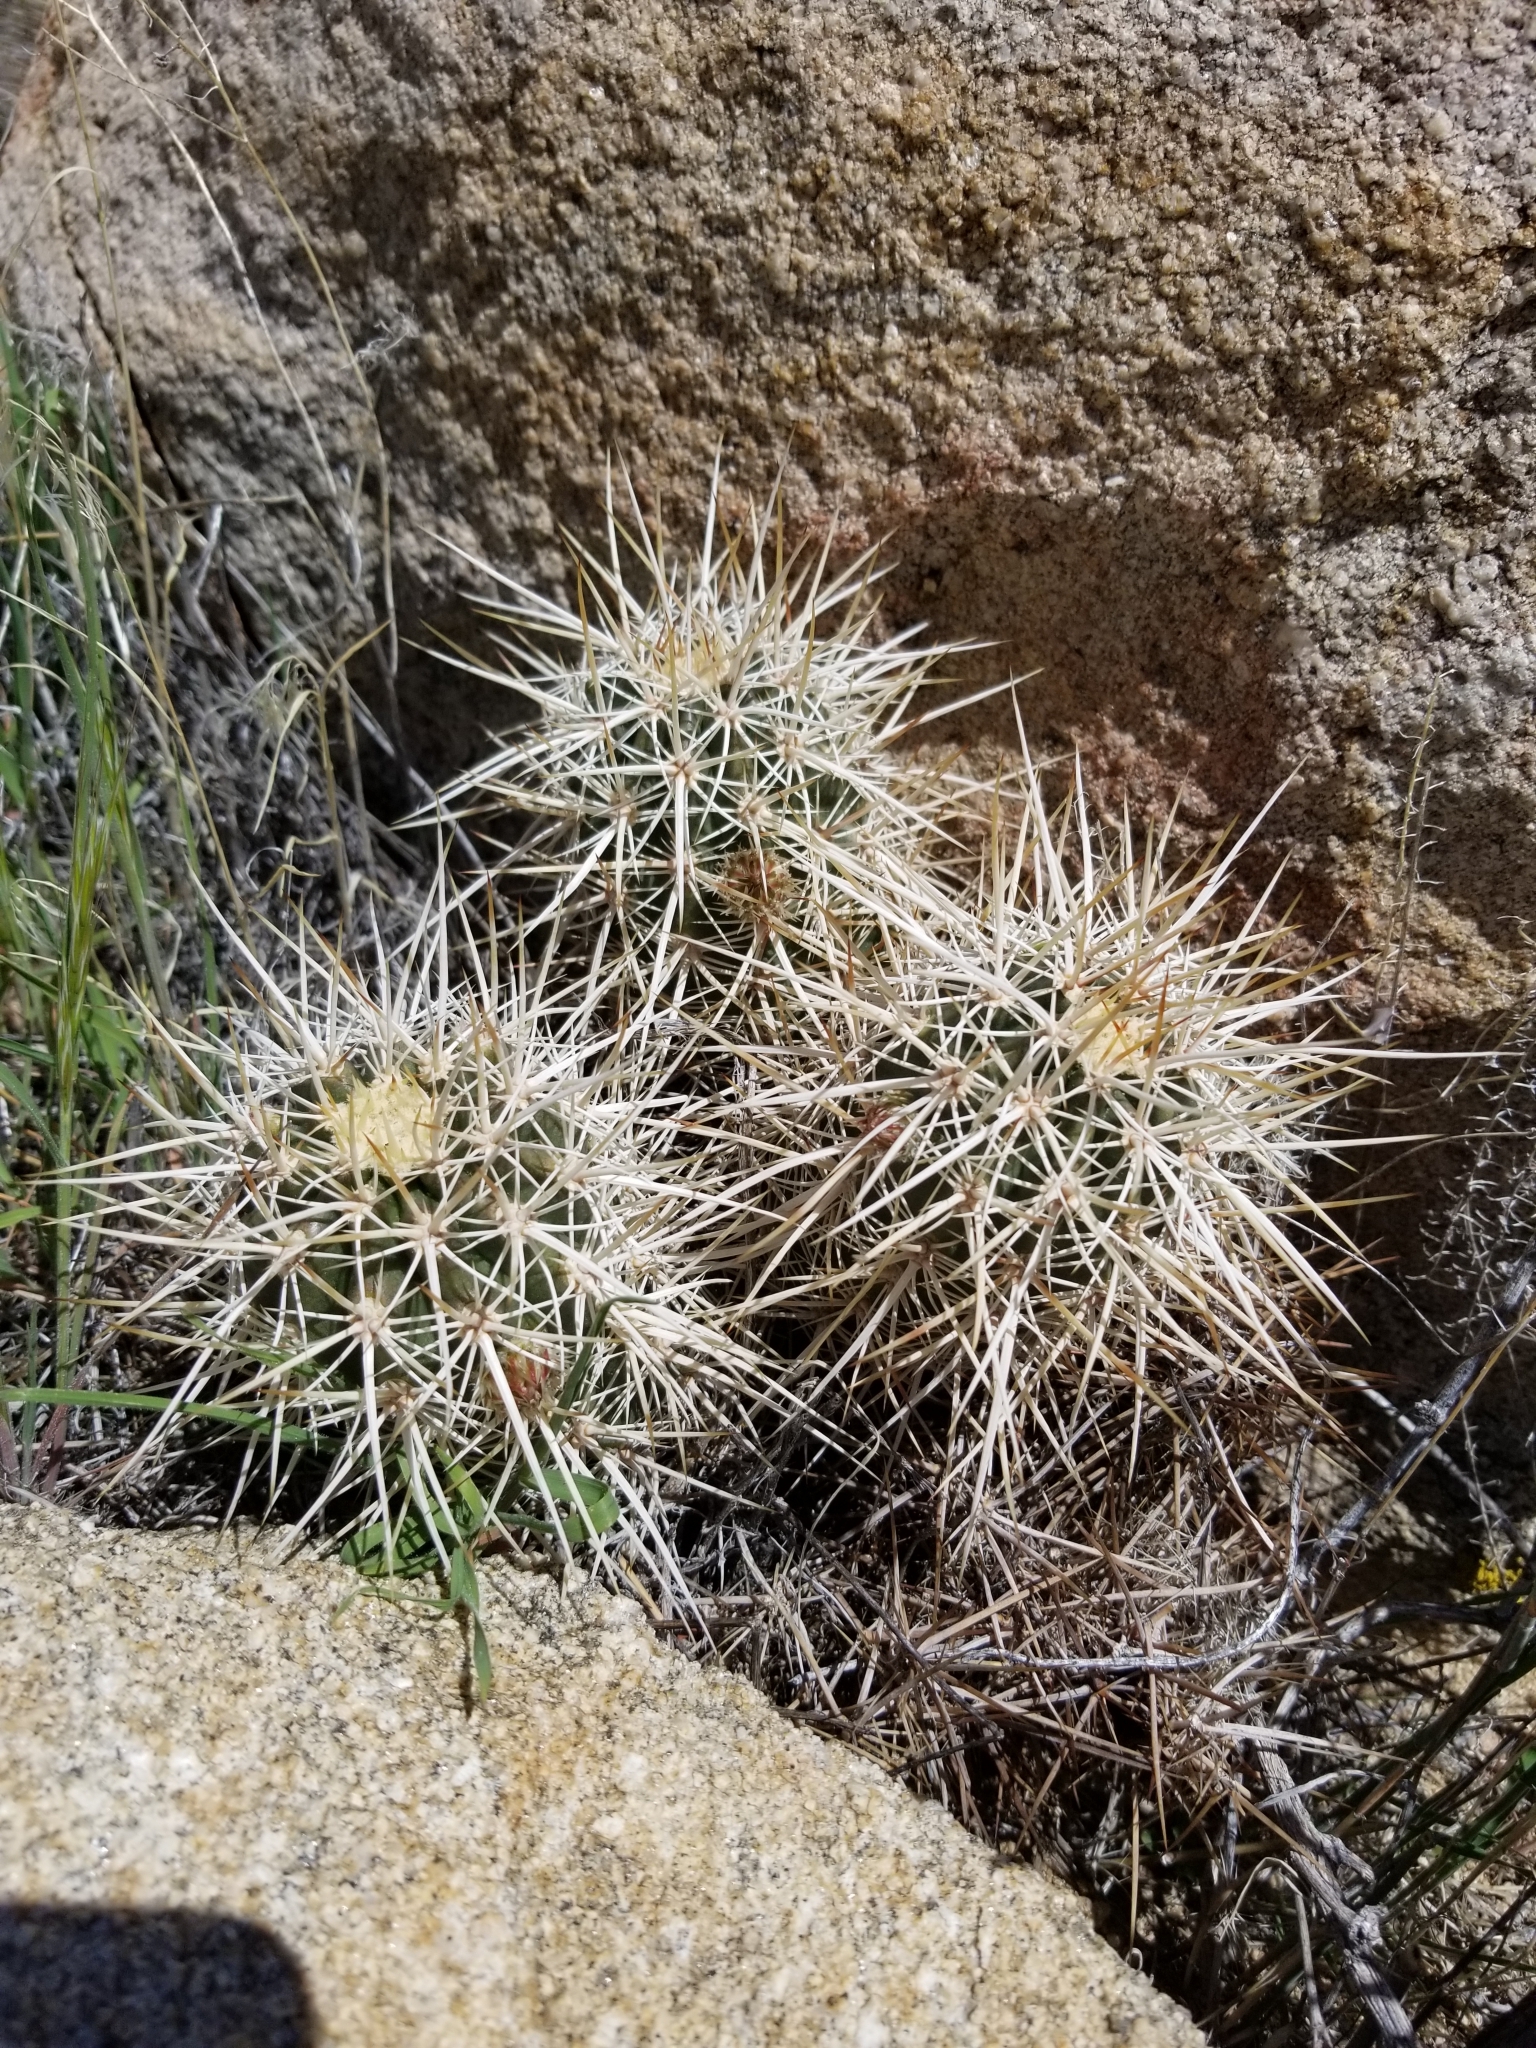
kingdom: Plantae
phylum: Tracheophyta
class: Magnoliopsida
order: Caryophyllales
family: Cactaceae
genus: Echinocereus
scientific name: Echinocereus engelmannii
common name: Engelmann's hedgehog cactus
